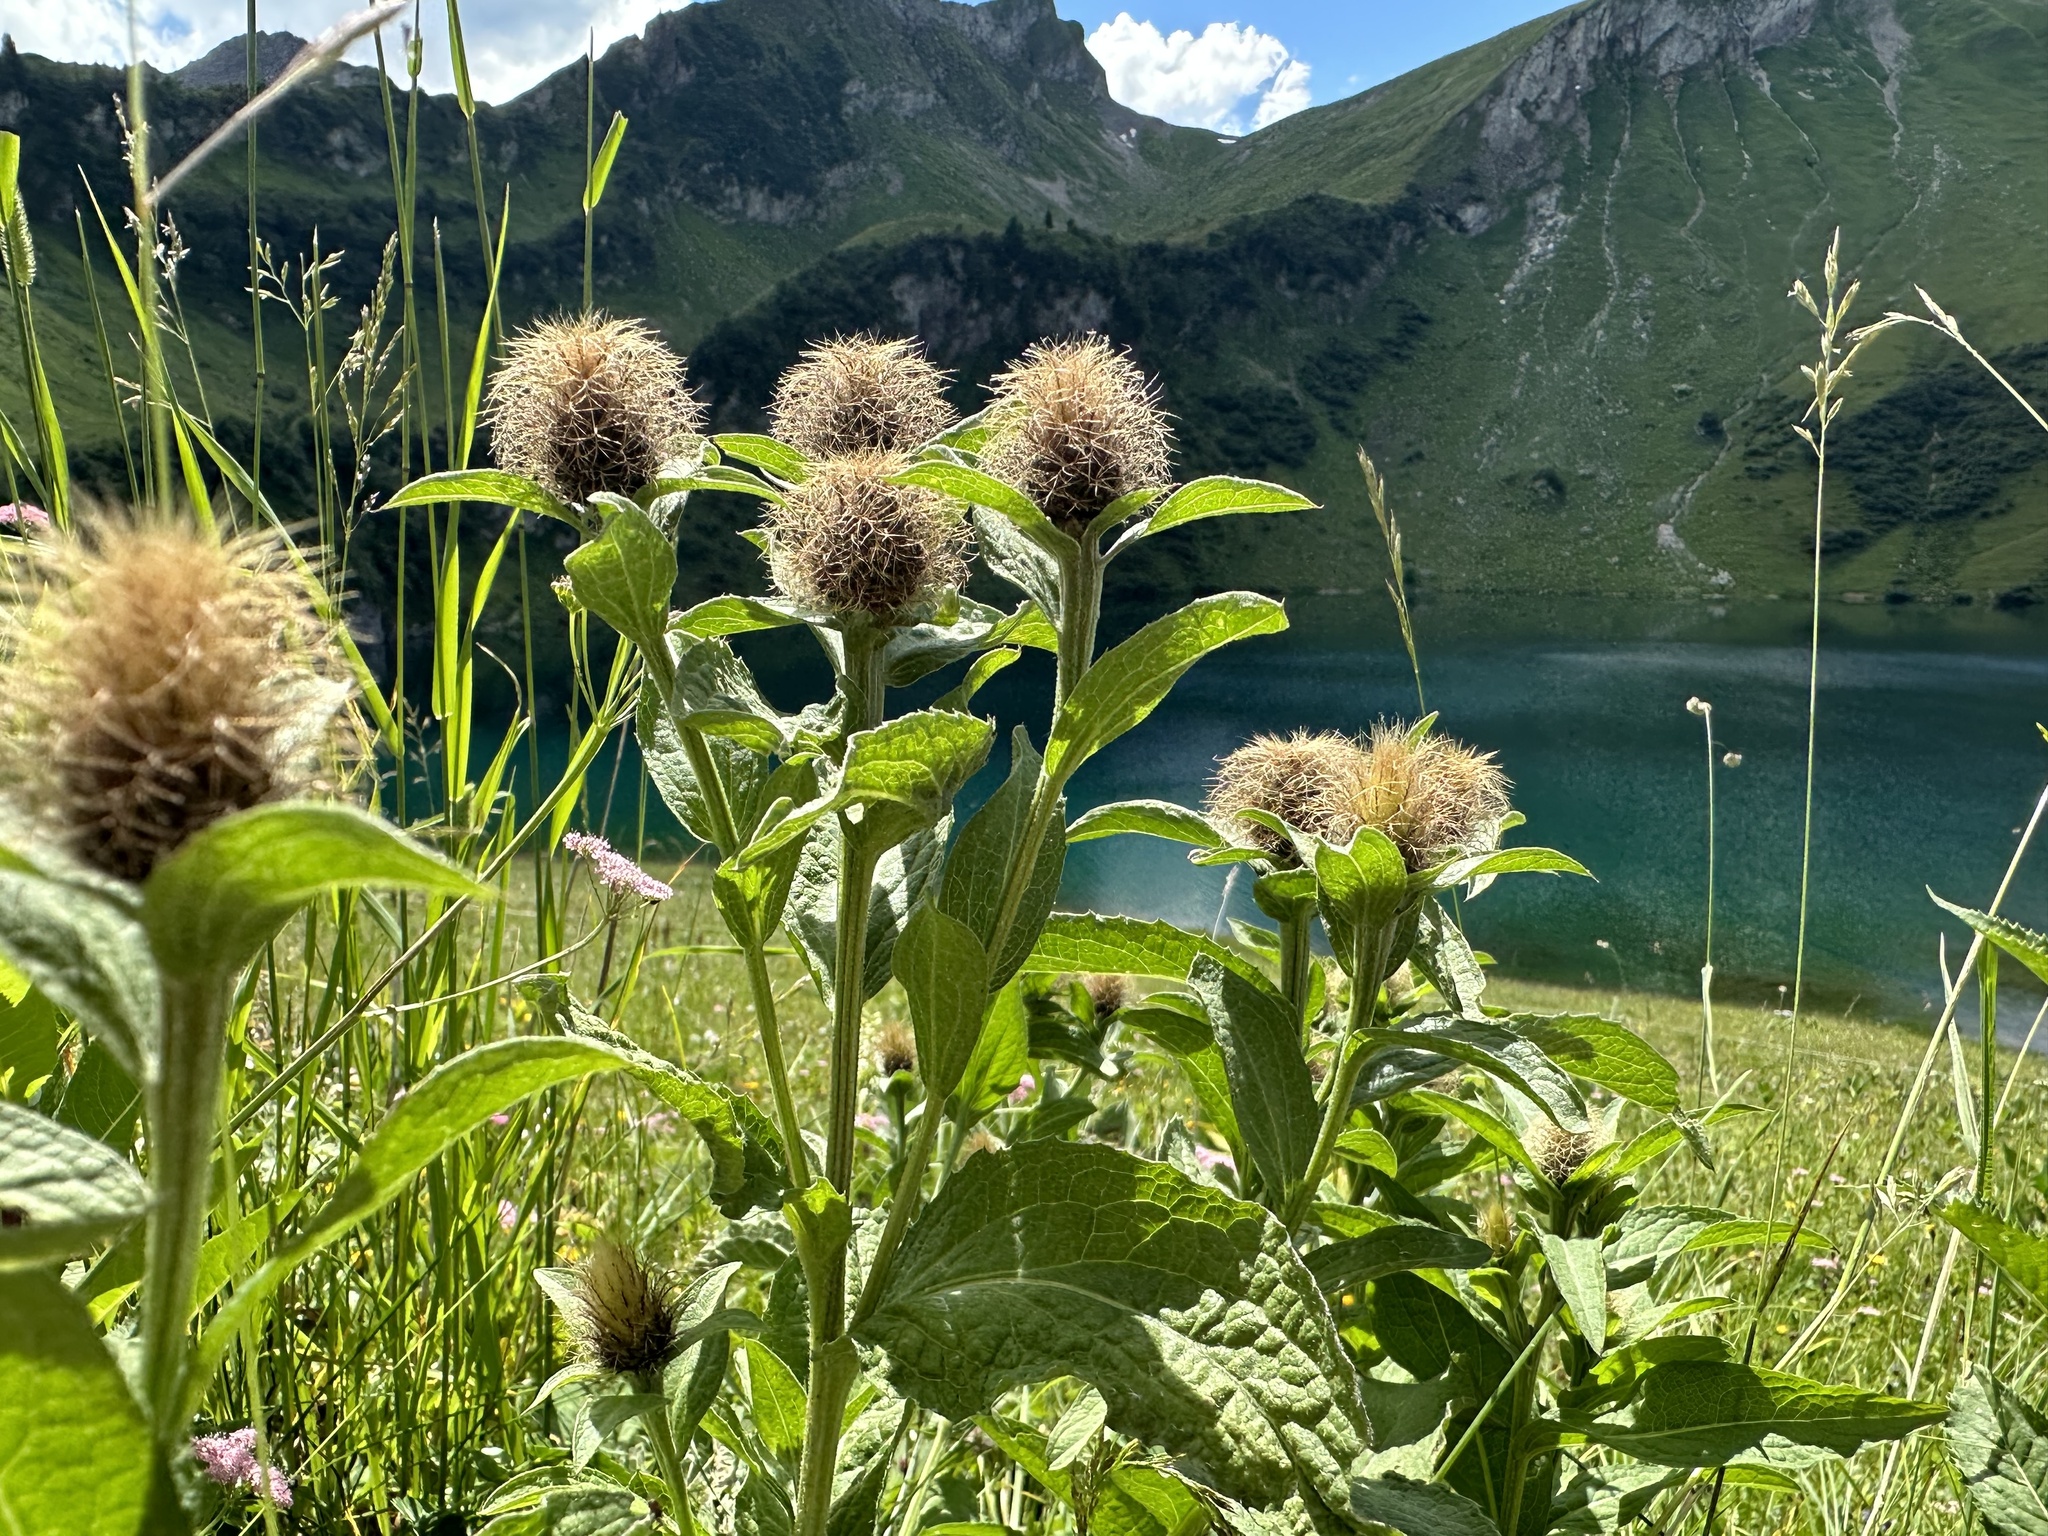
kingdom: Plantae
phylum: Tracheophyta
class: Magnoliopsida
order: Asterales
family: Asteraceae
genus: Centaurea
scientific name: Centaurea phrygia
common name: Wig knapweed
